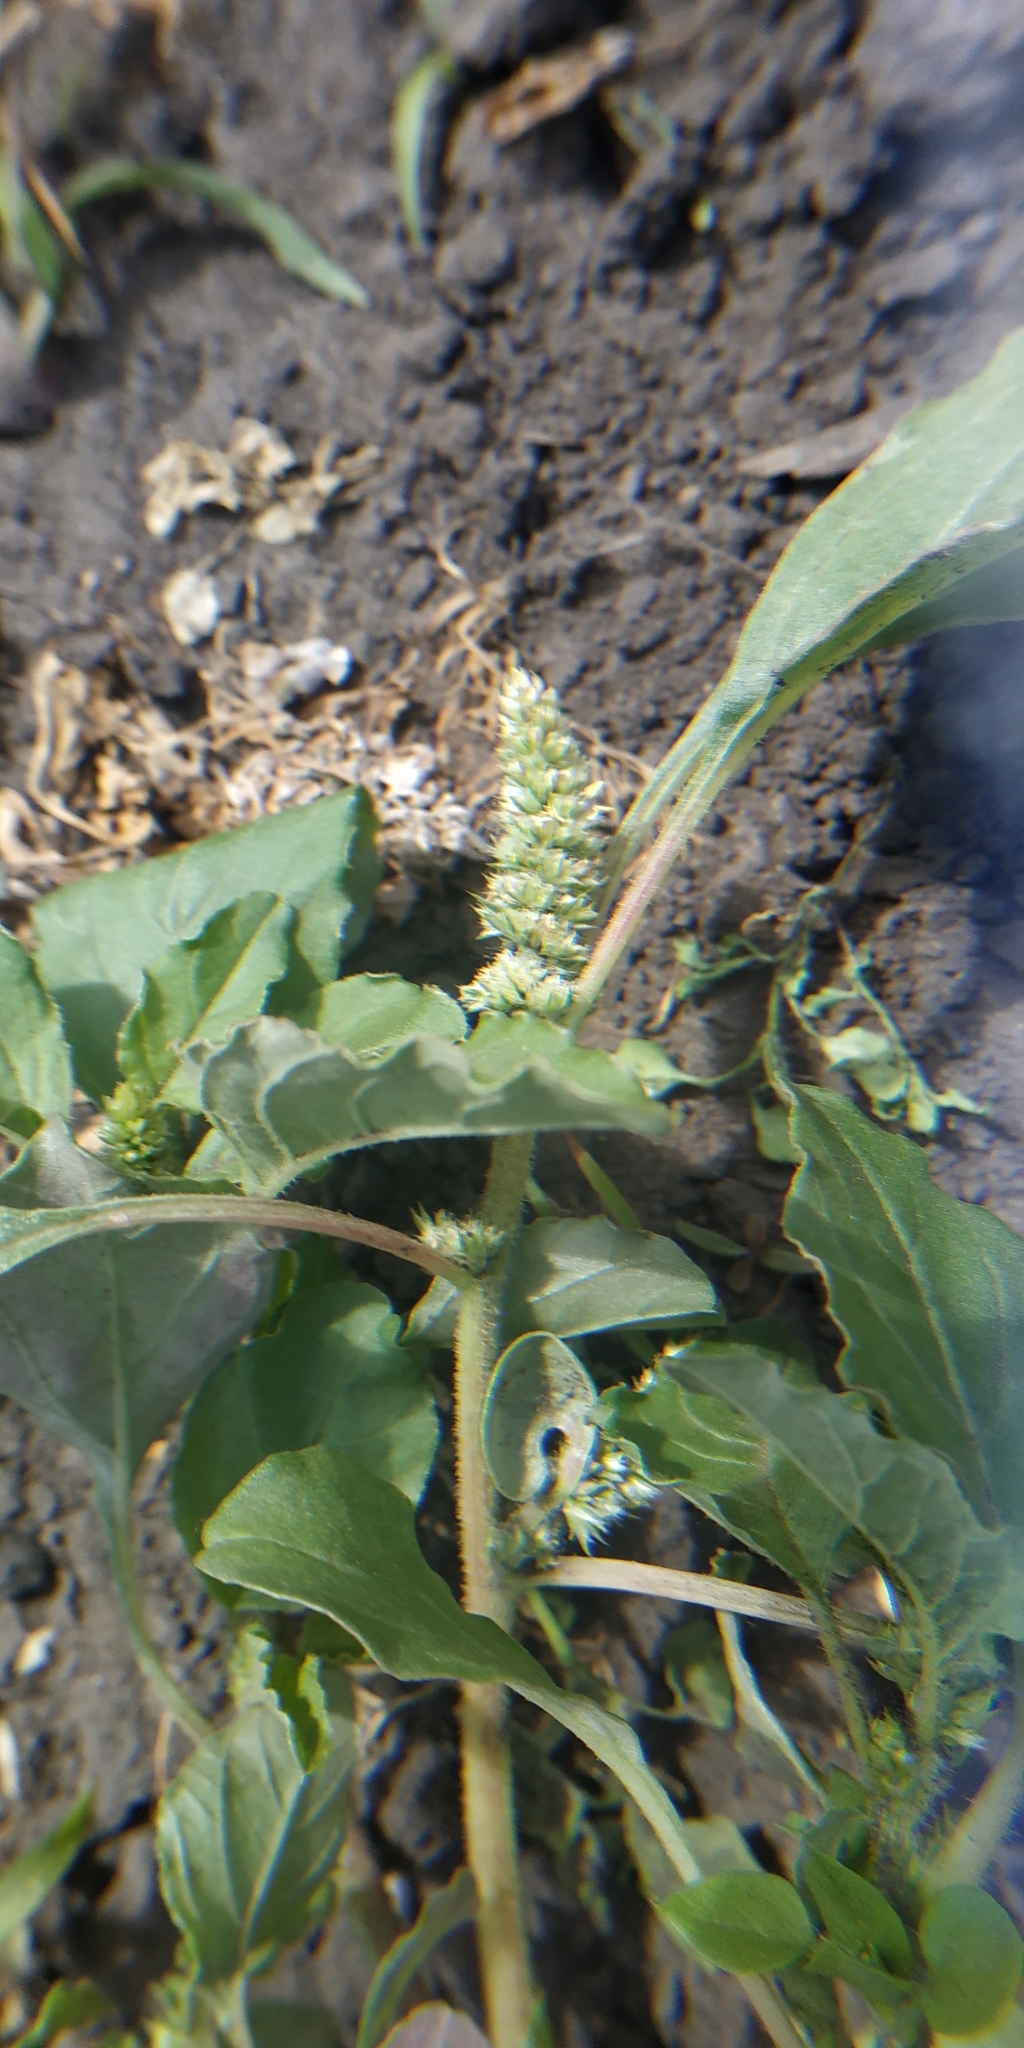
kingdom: Plantae
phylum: Tracheophyta
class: Magnoliopsida
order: Caryophyllales
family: Amaranthaceae
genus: Amaranthus
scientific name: Amaranthus retroflexus
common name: Redroot amaranth
